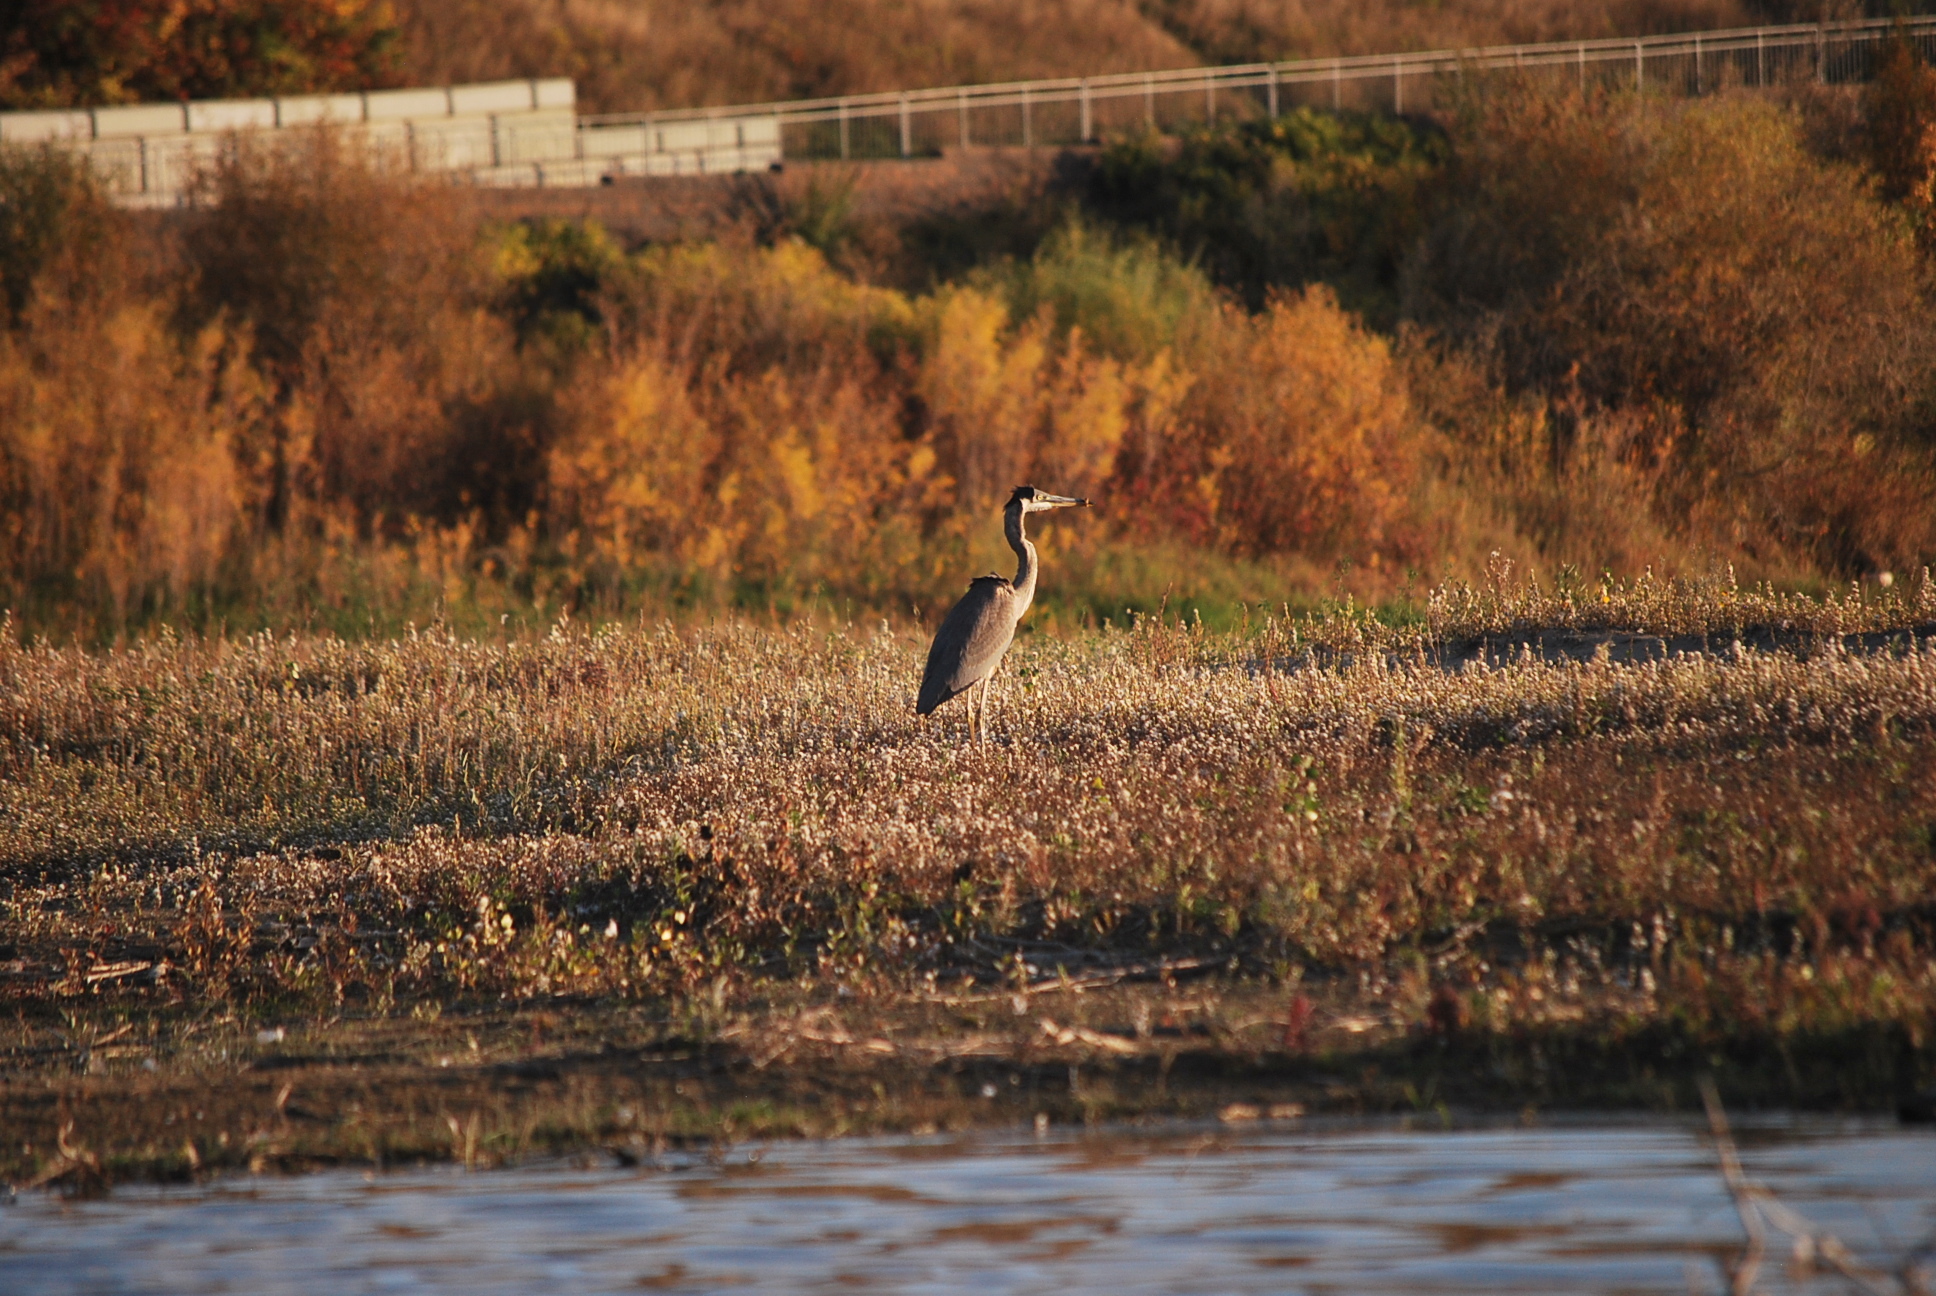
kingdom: Animalia
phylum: Chordata
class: Aves
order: Pelecaniformes
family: Ardeidae
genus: Ardea
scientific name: Ardea herodias
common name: Great blue heron
